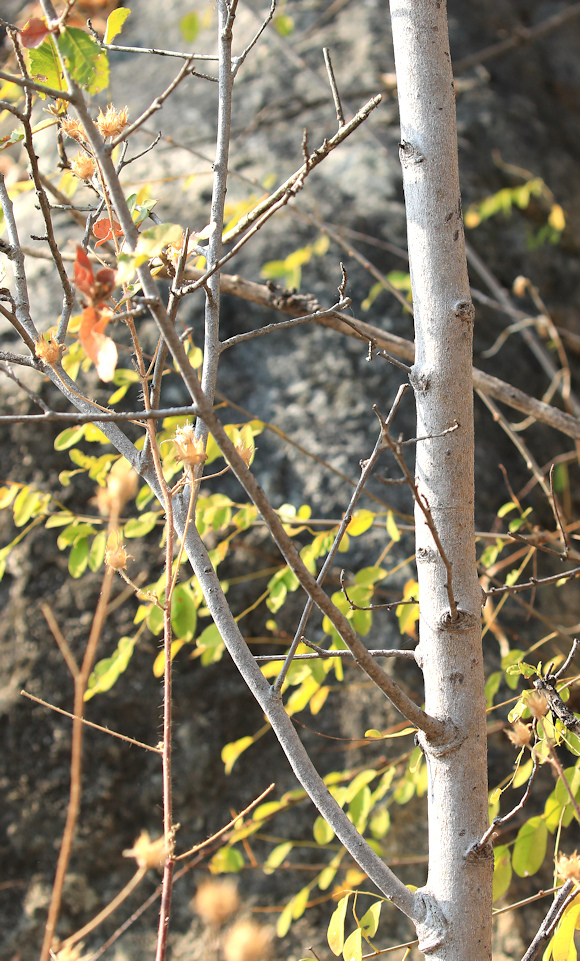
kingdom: Plantae
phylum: Tracheophyta
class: Magnoliopsida
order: Sapindales
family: Sapindaceae
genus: Pappea
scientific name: Pappea capensis
